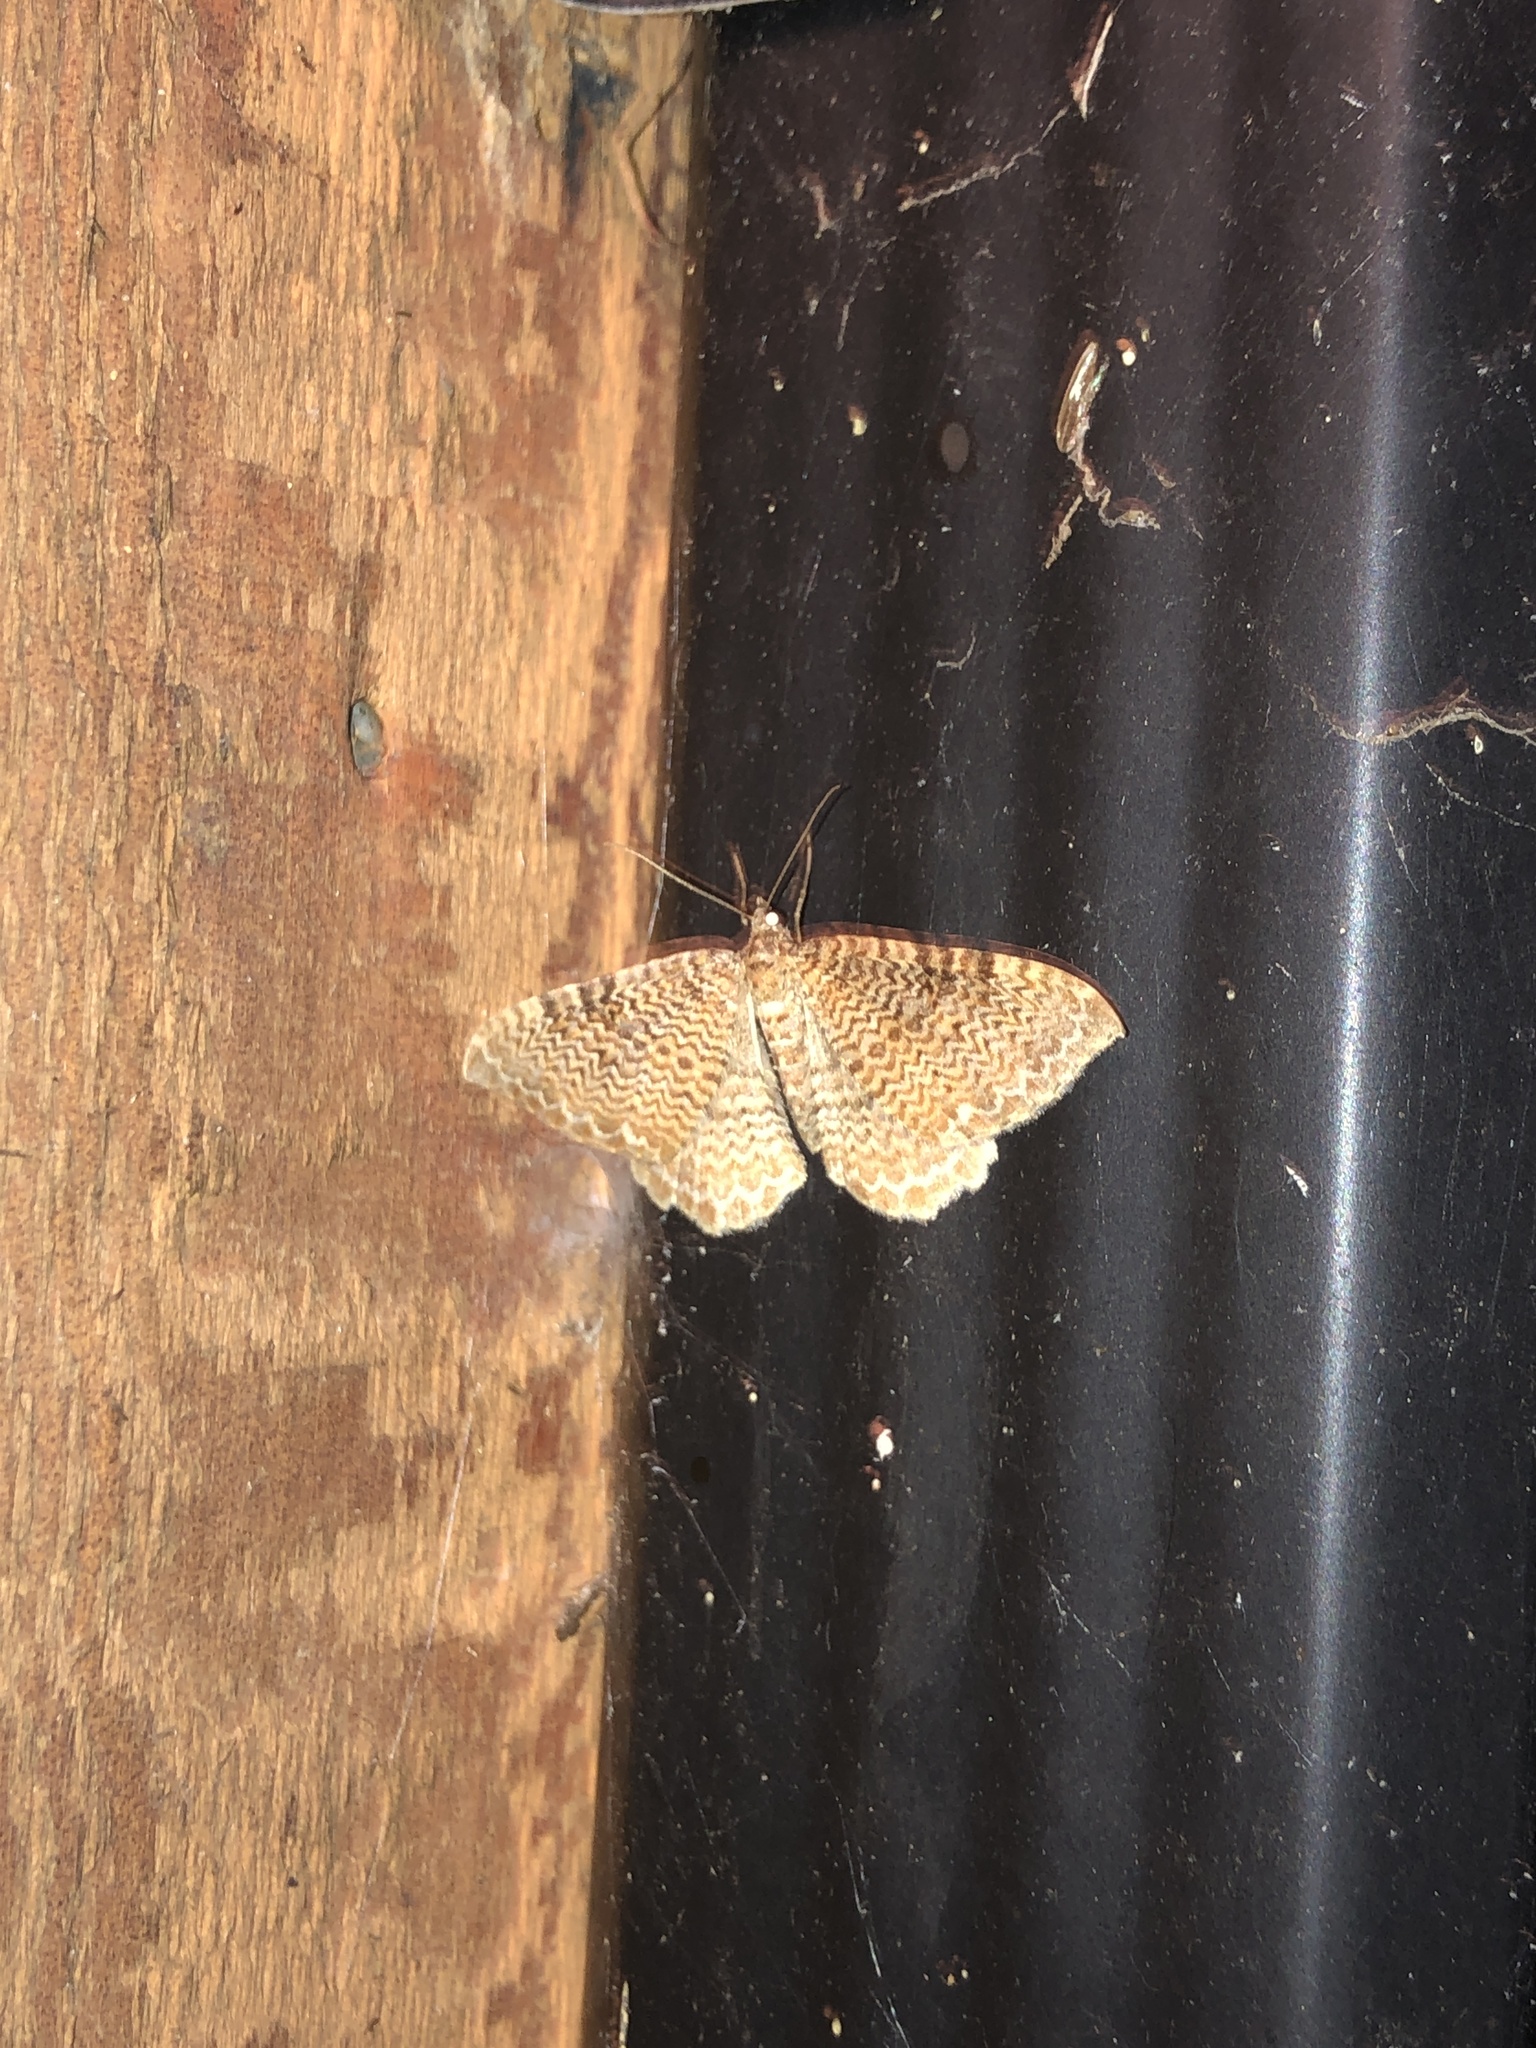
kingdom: Animalia
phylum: Arthropoda
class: Insecta
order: Lepidoptera
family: Geometridae
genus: Rheumaptera
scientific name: Rheumaptera undulata
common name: Scallop shell
